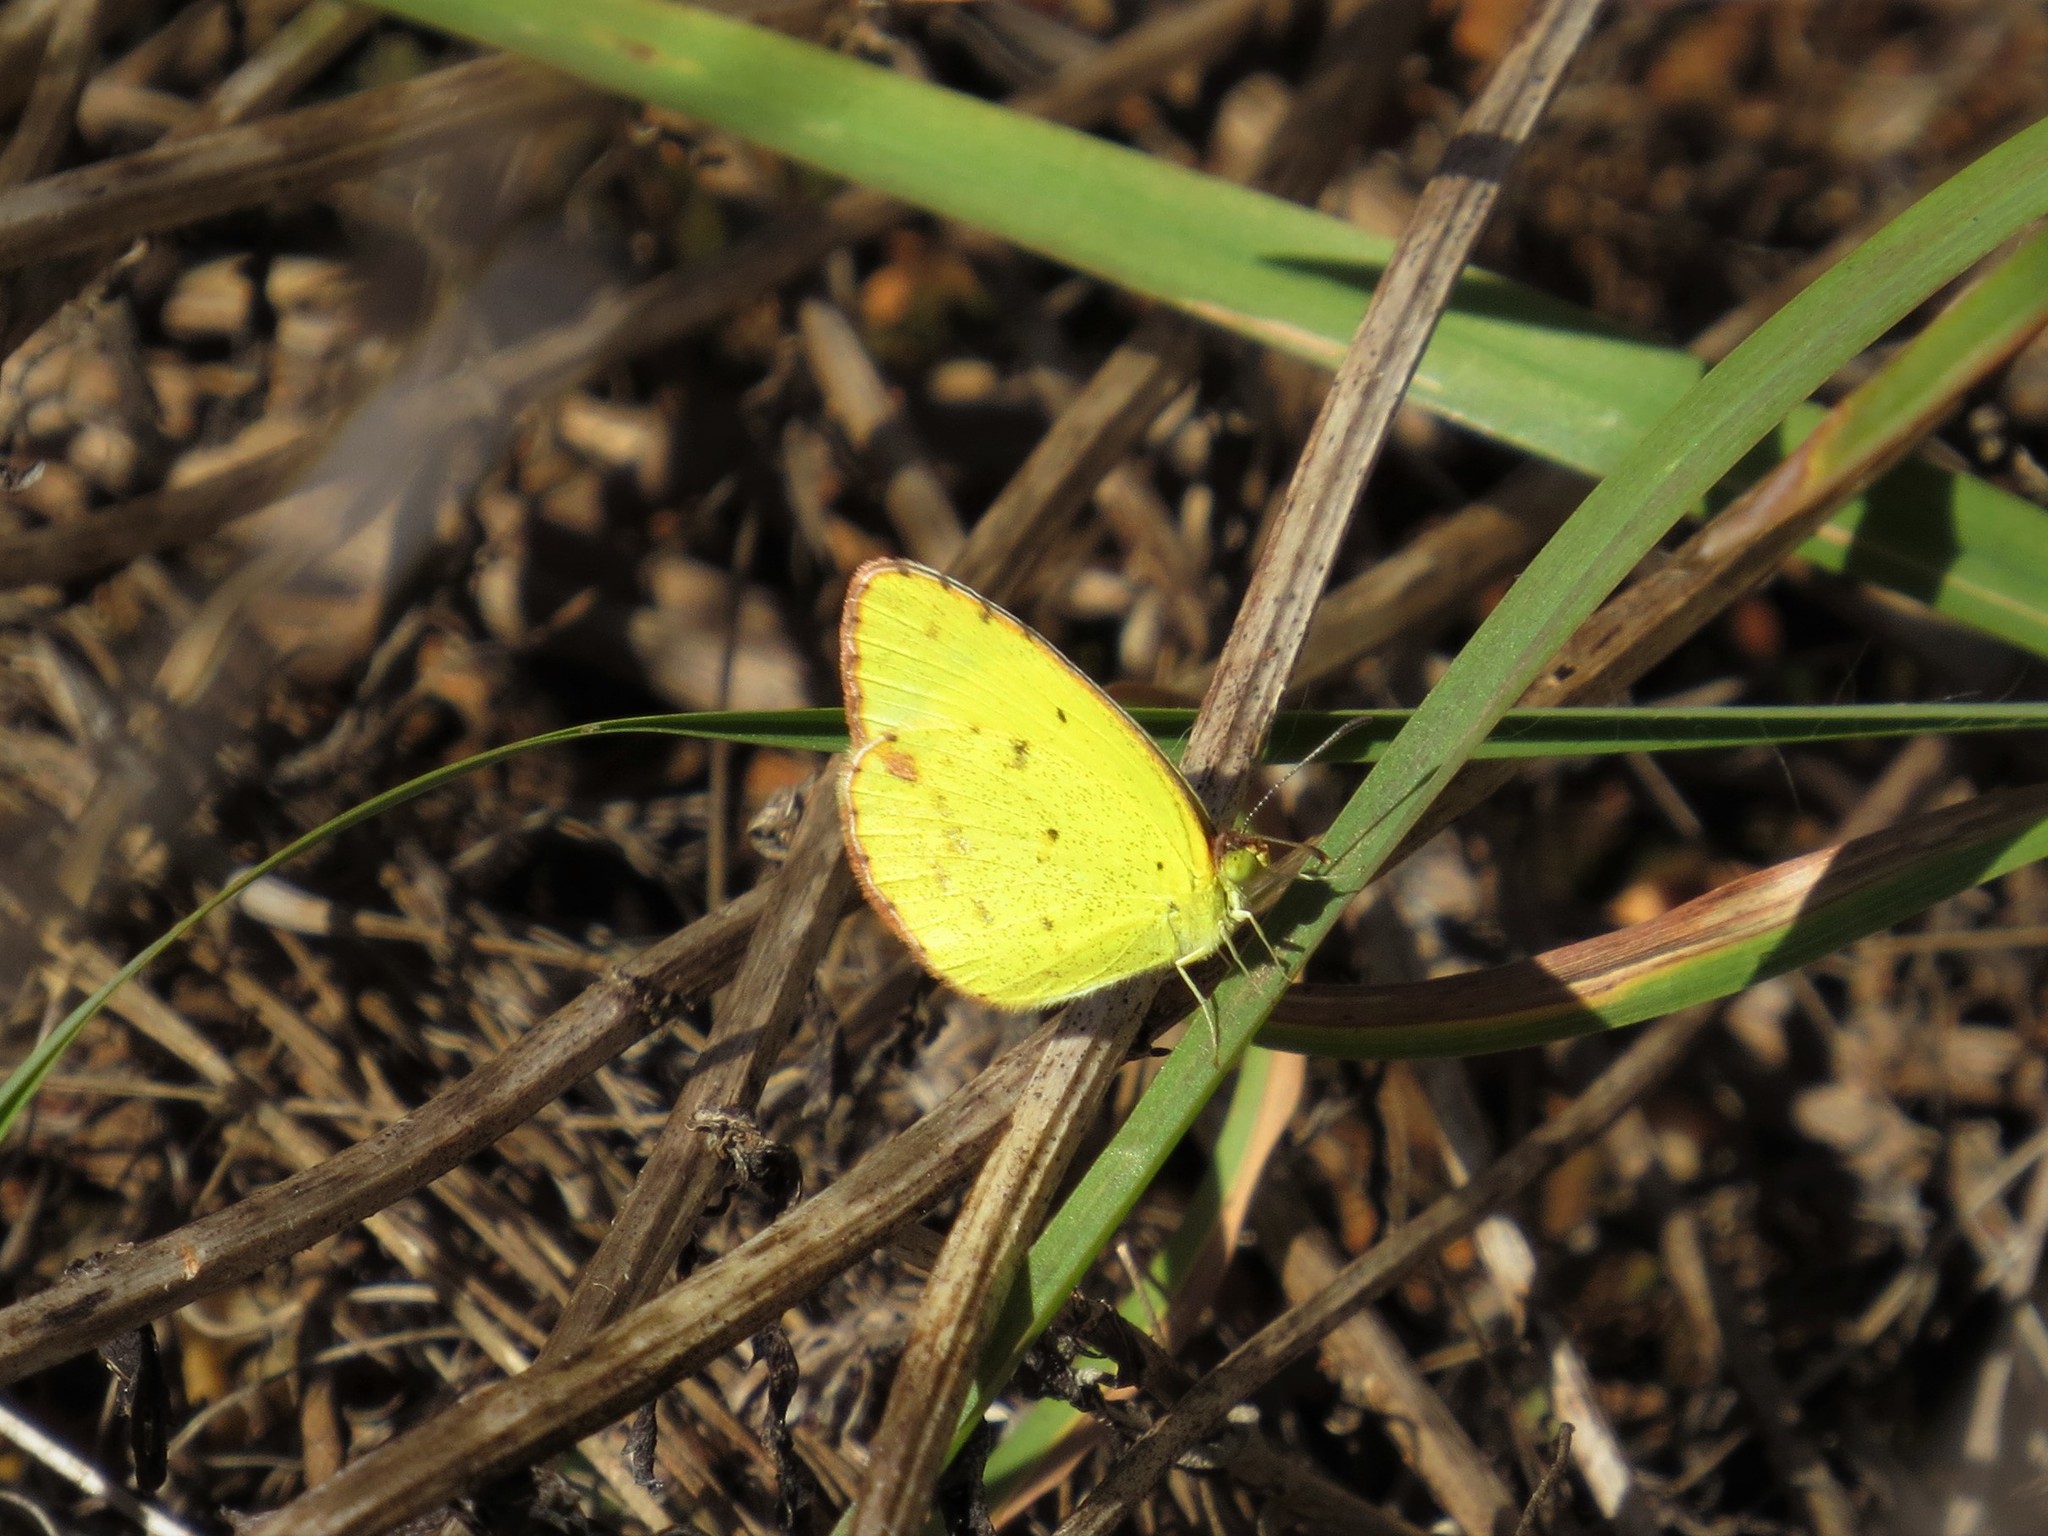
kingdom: Animalia
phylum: Arthropoda
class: Insecta
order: Lepidoptera
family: Pieridae
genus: Pyrisitia
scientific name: Pyrisitia lisa
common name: Little yellow
